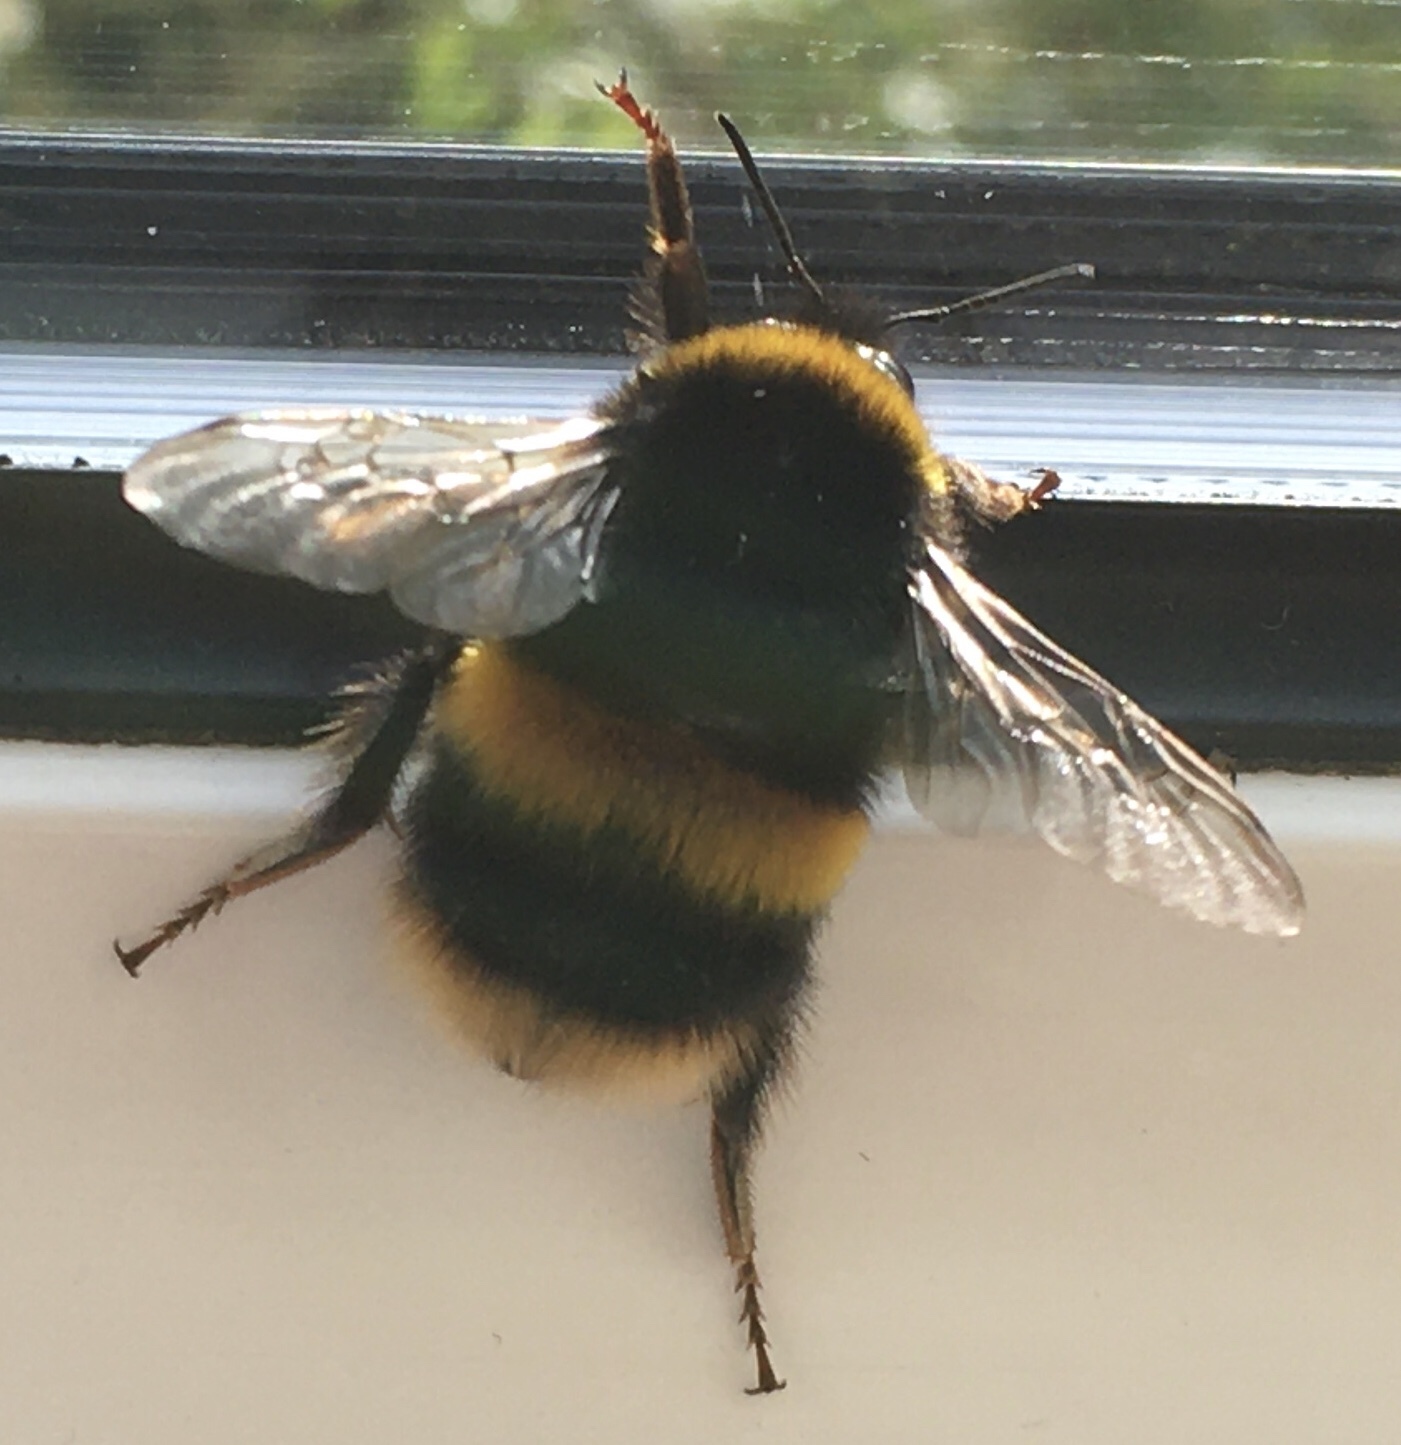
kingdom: Animalia
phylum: Arthropoda
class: Insecta
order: Hymenoptera
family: Apidae
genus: Bombus
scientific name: Bombus terrestris
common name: Buff-tailed bumblebee
